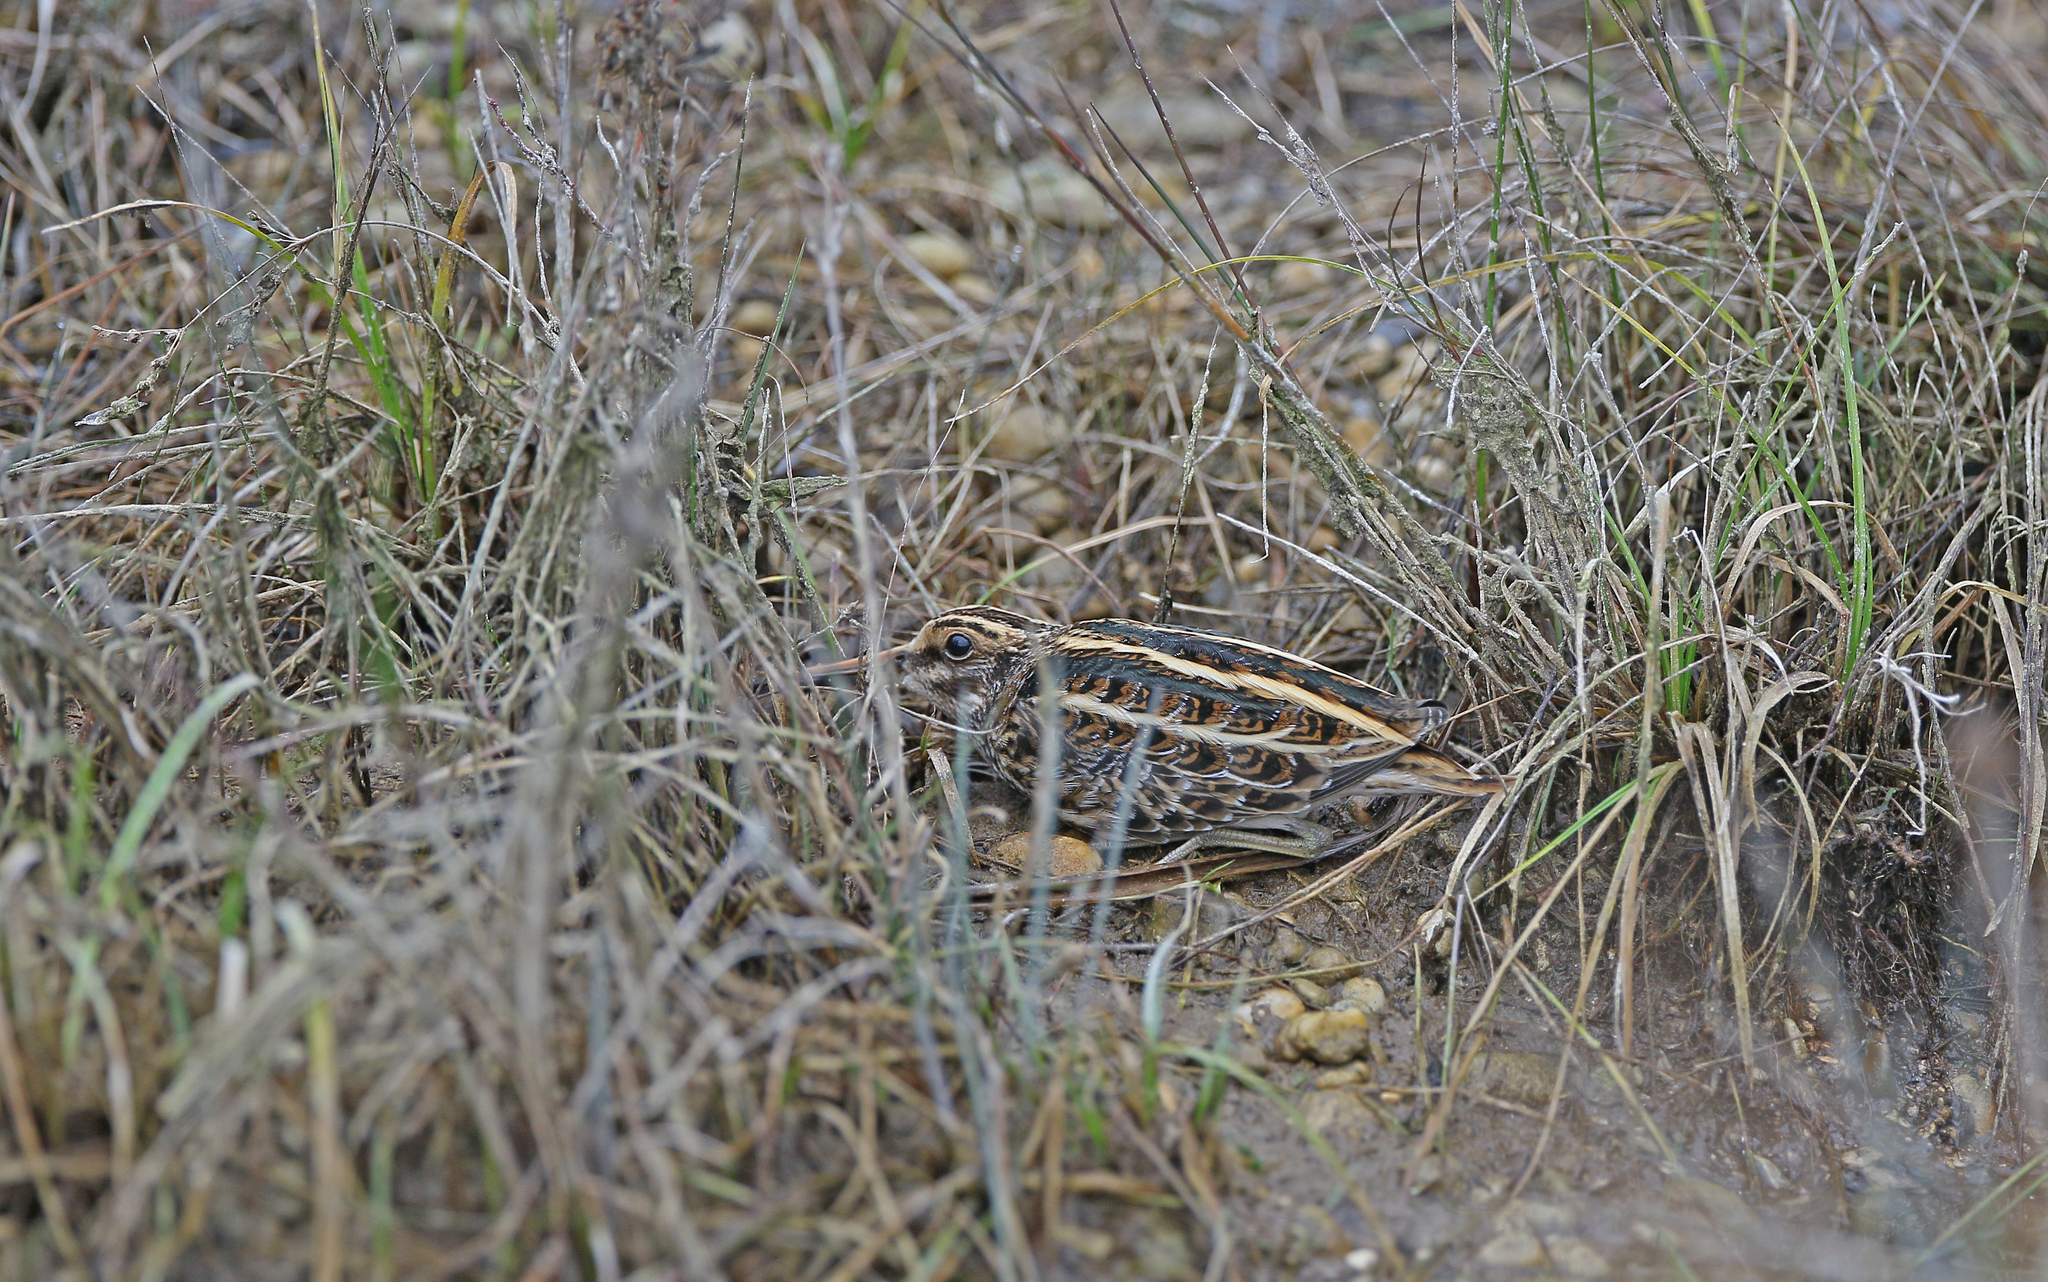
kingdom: Animalia
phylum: Chordata
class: Aves
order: Charadriiformes
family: Scolopacidae
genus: Lymnocryptes
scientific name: Lymnocryptes minimus
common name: Jack snipe
